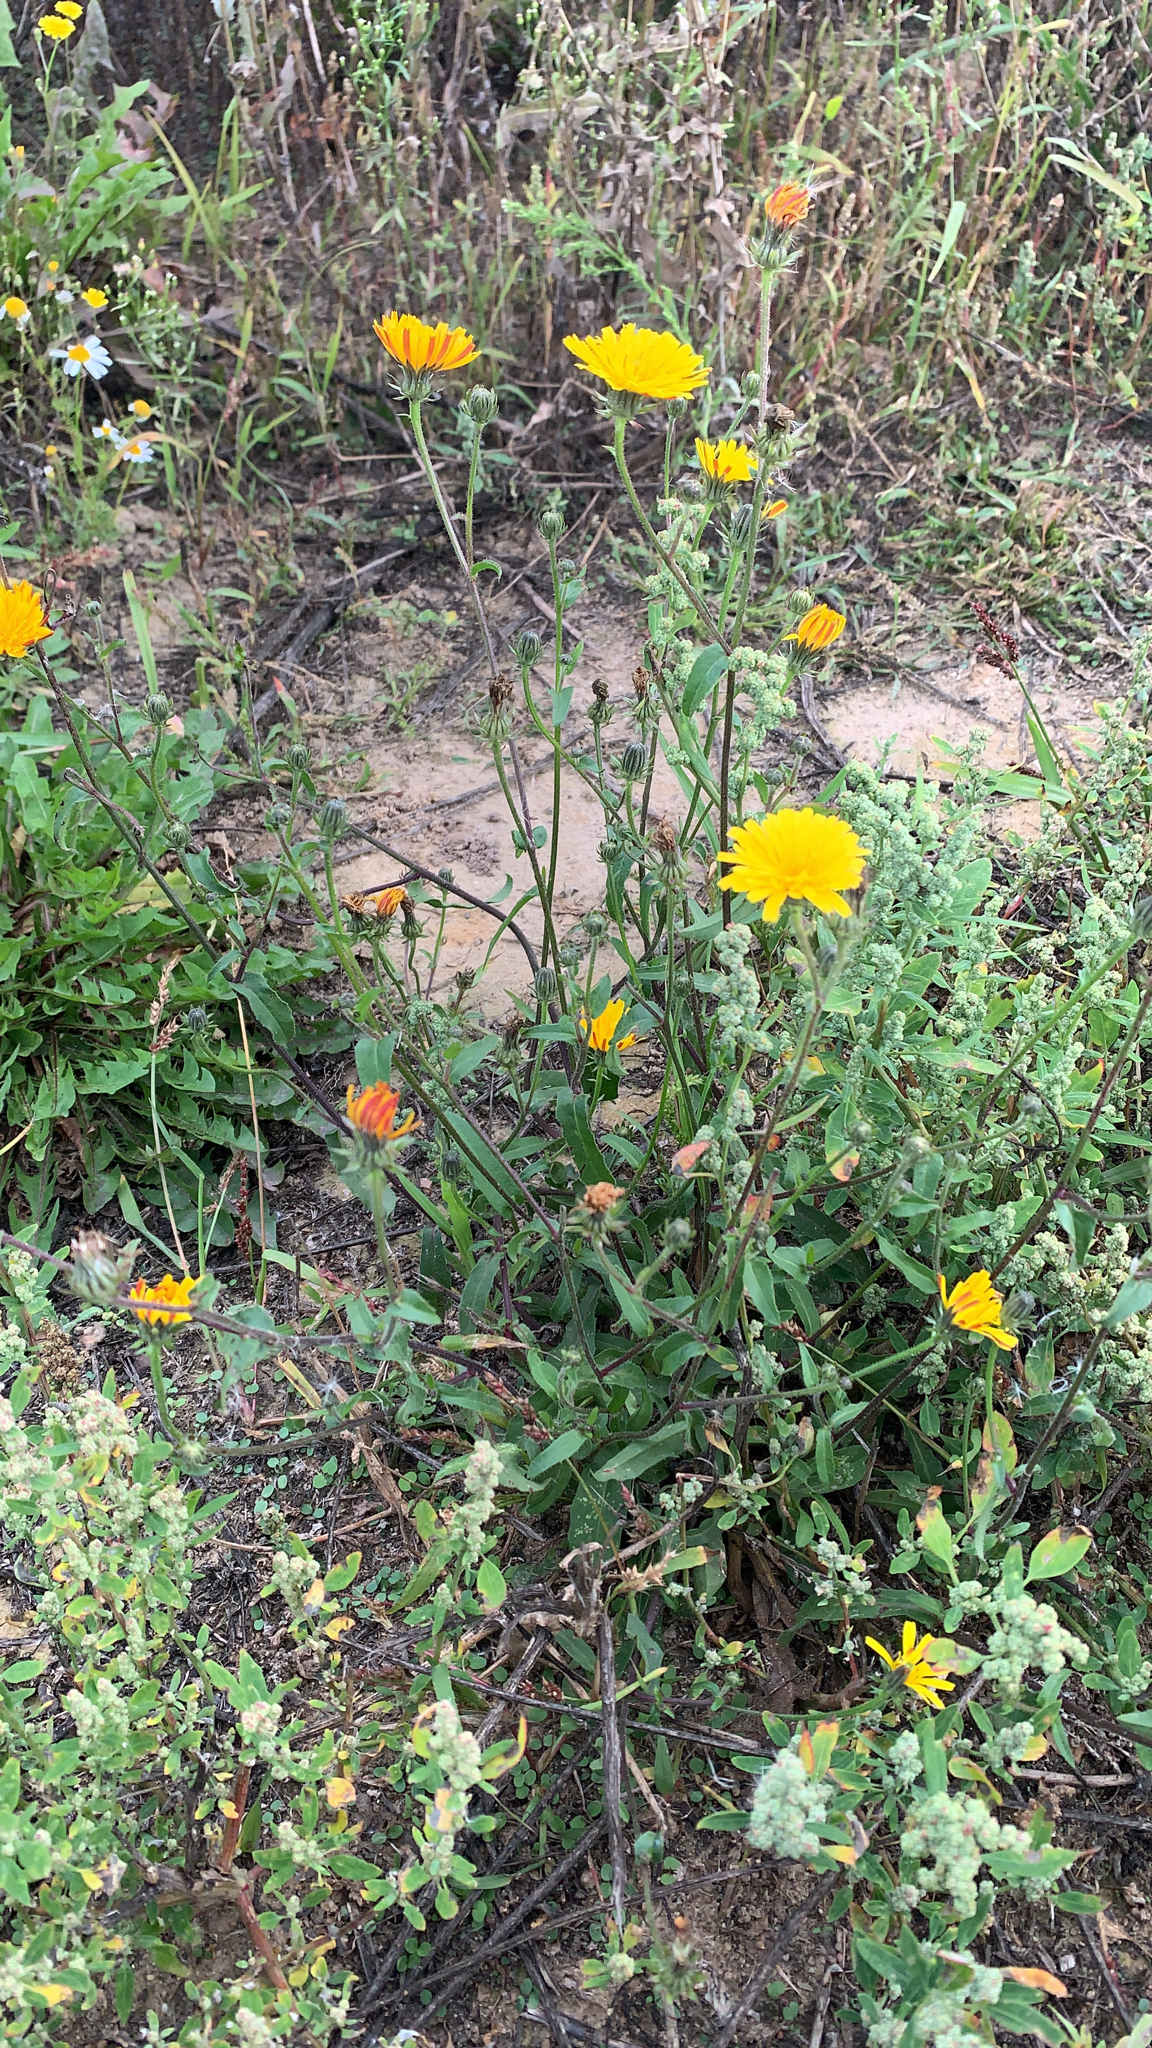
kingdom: Plantae
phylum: Tracheophyta
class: Magnoliopsida
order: Asterales
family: Asteraceae
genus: Picris
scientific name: Picris hieracioides
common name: Hawkweed oxtongue
